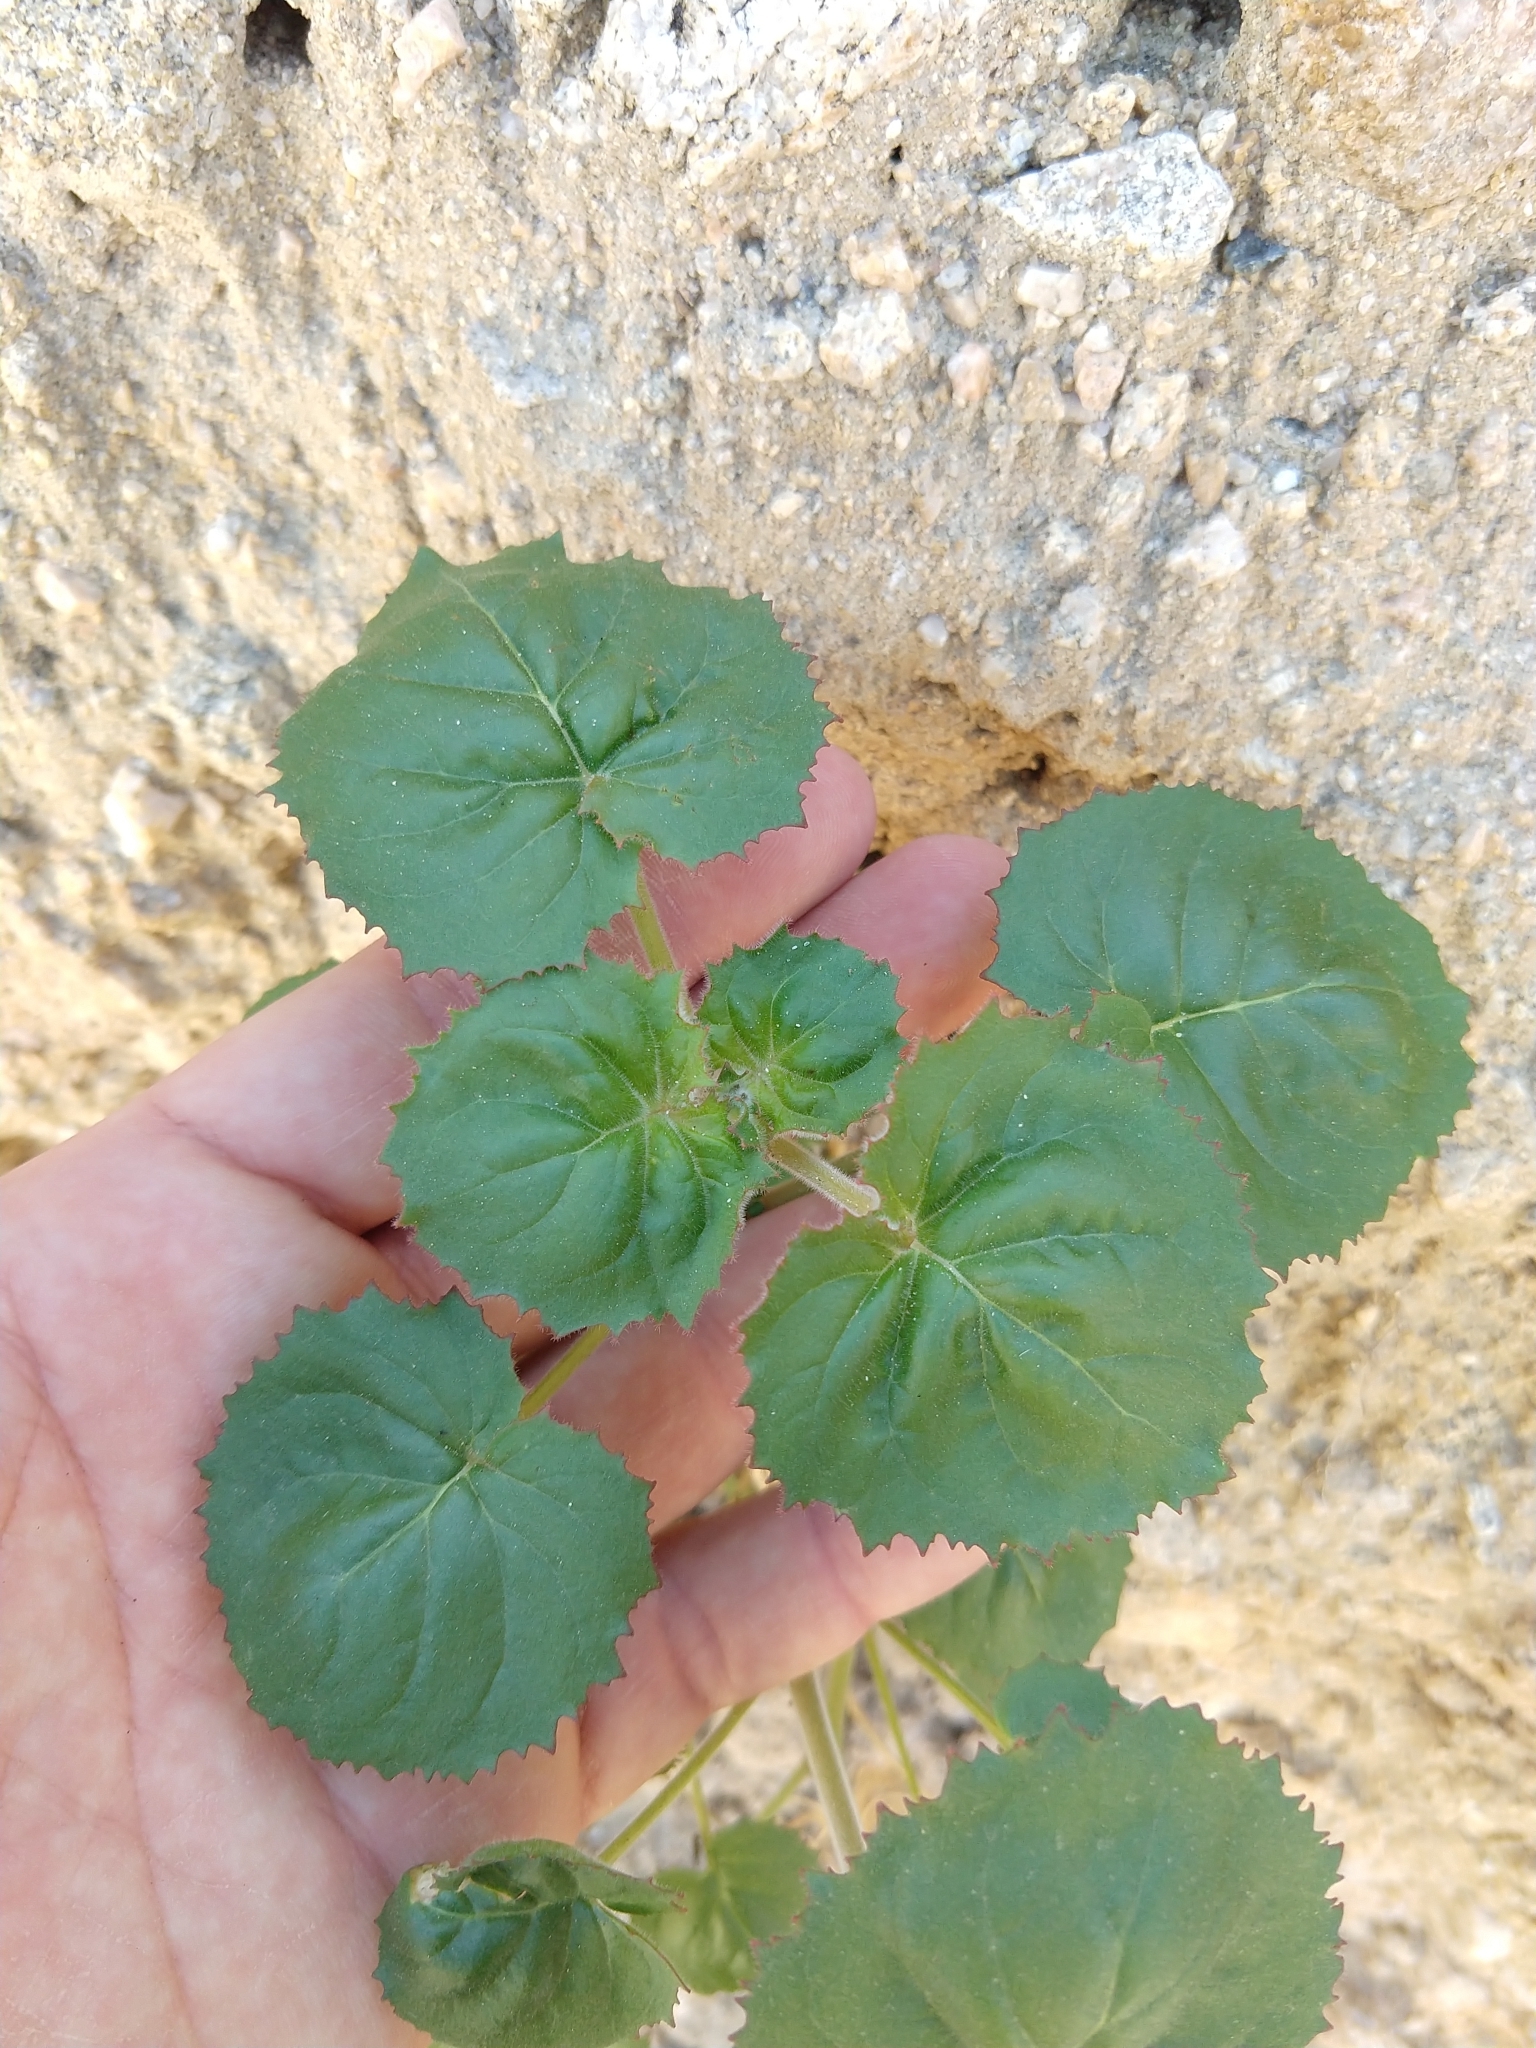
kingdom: Plantae
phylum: Tracheophyta
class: Magnoliopsida
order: Myrtales
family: Onagraceae
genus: Chylismia
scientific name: Chylismia cardiophylla
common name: Heartleaf suncup
